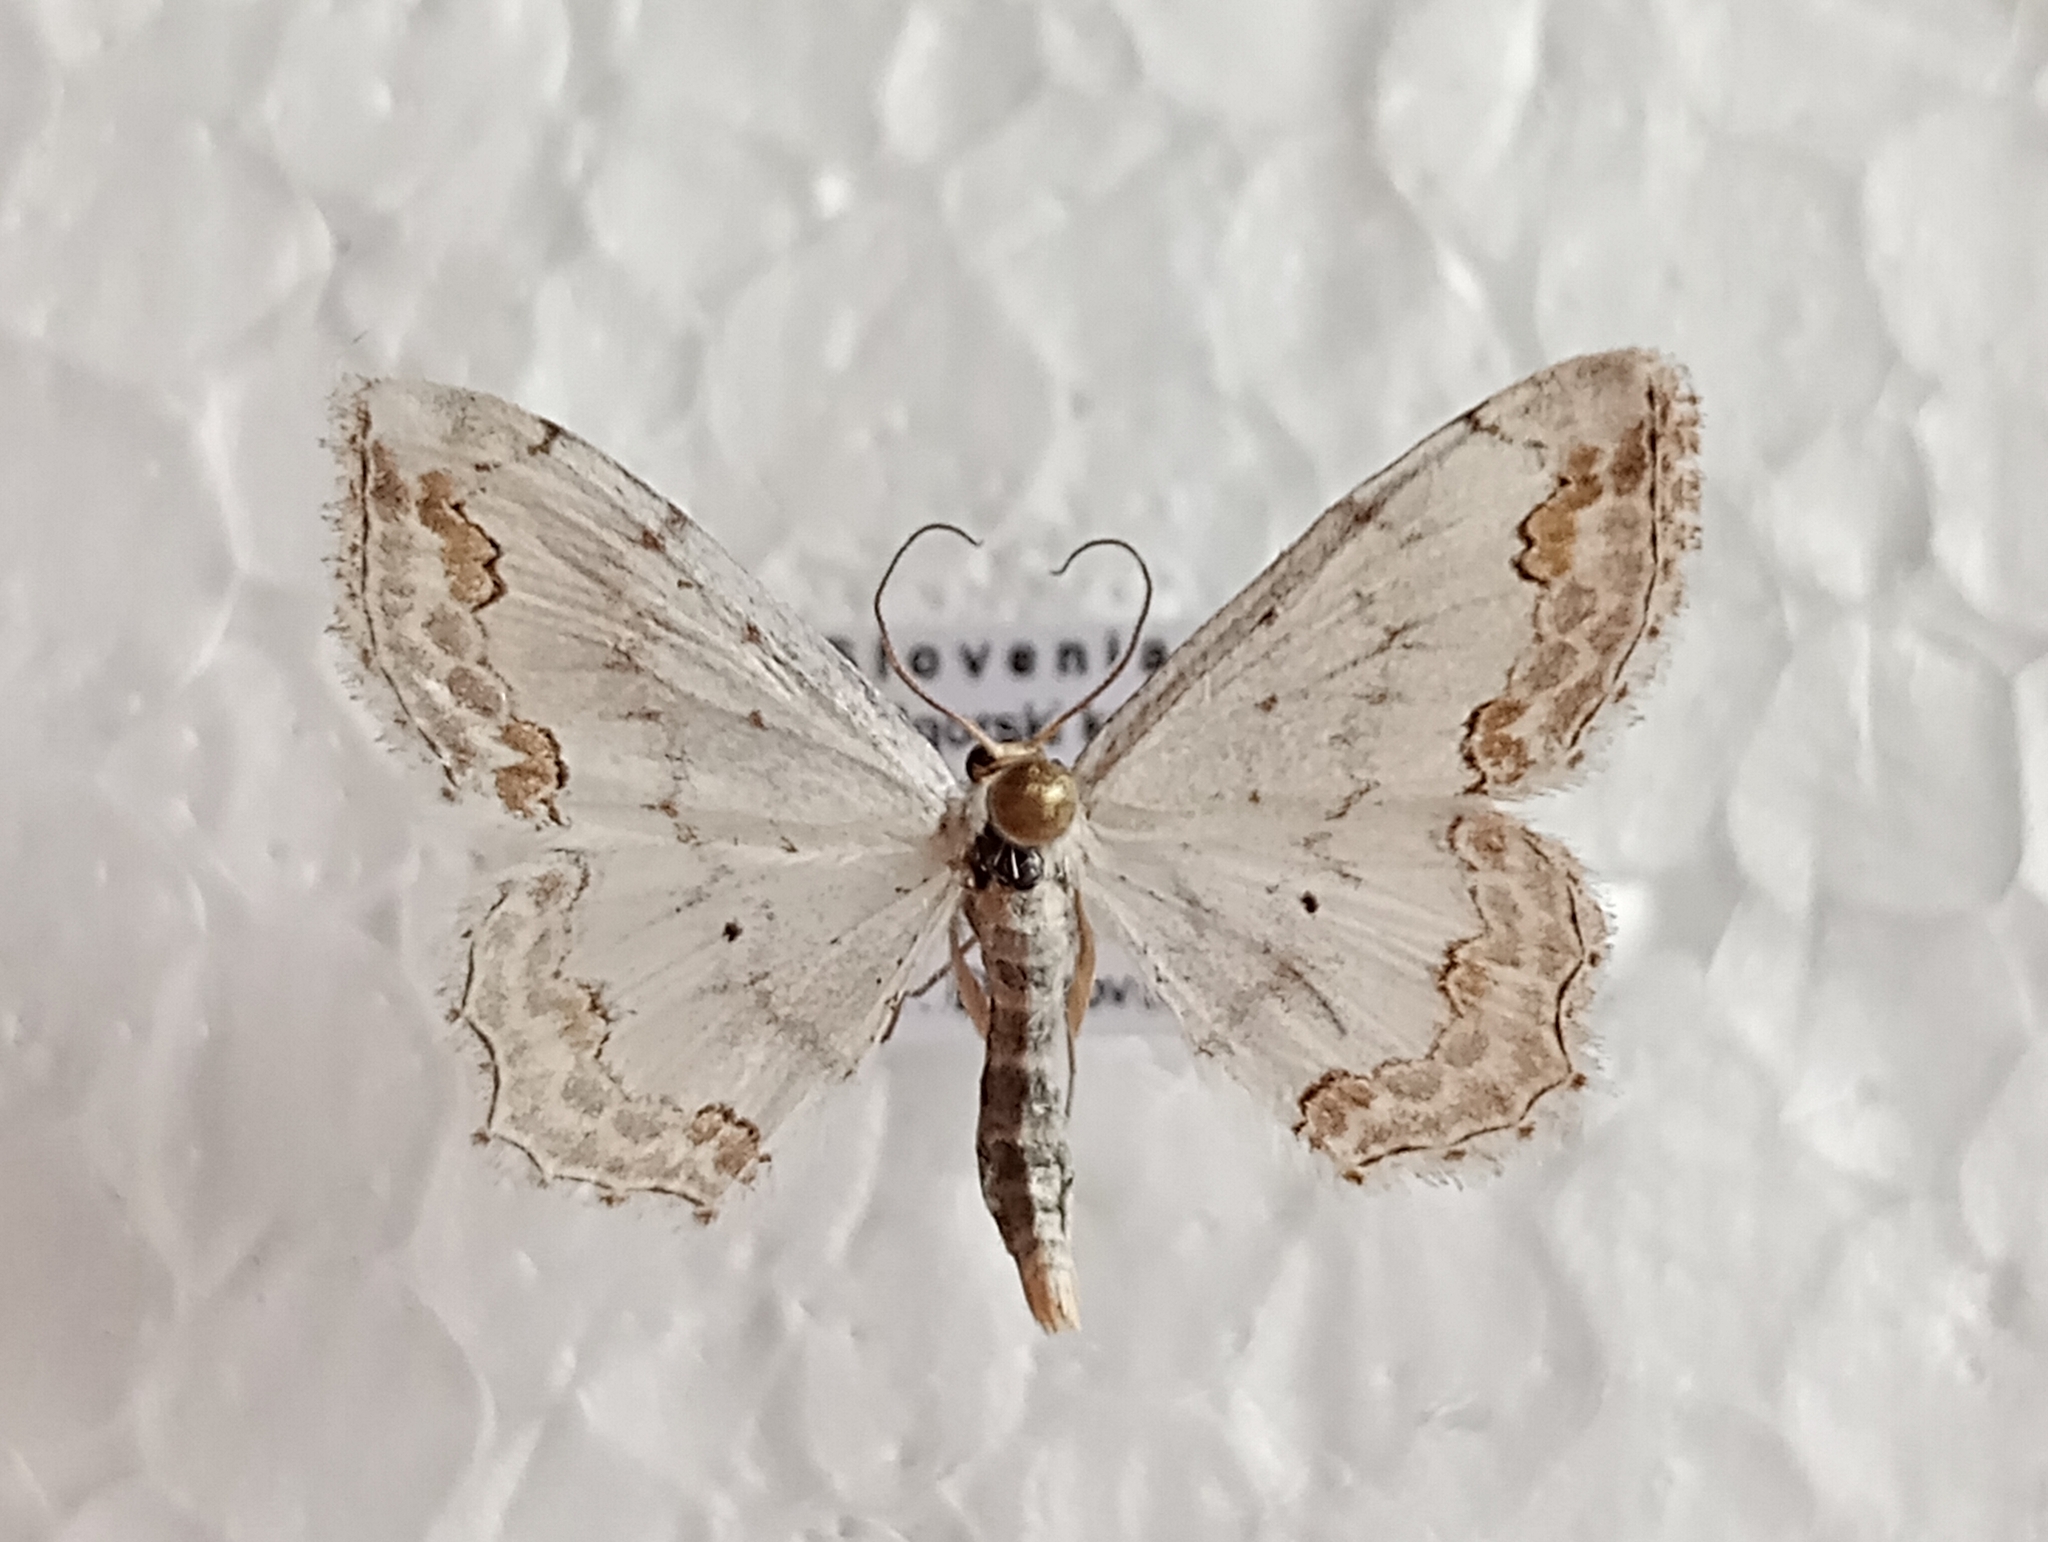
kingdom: Animalia
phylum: Arthropoda
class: Insecta
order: Lepidoptera
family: Geometridae
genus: Scopula
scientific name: Scopula ornata
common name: Lace border
